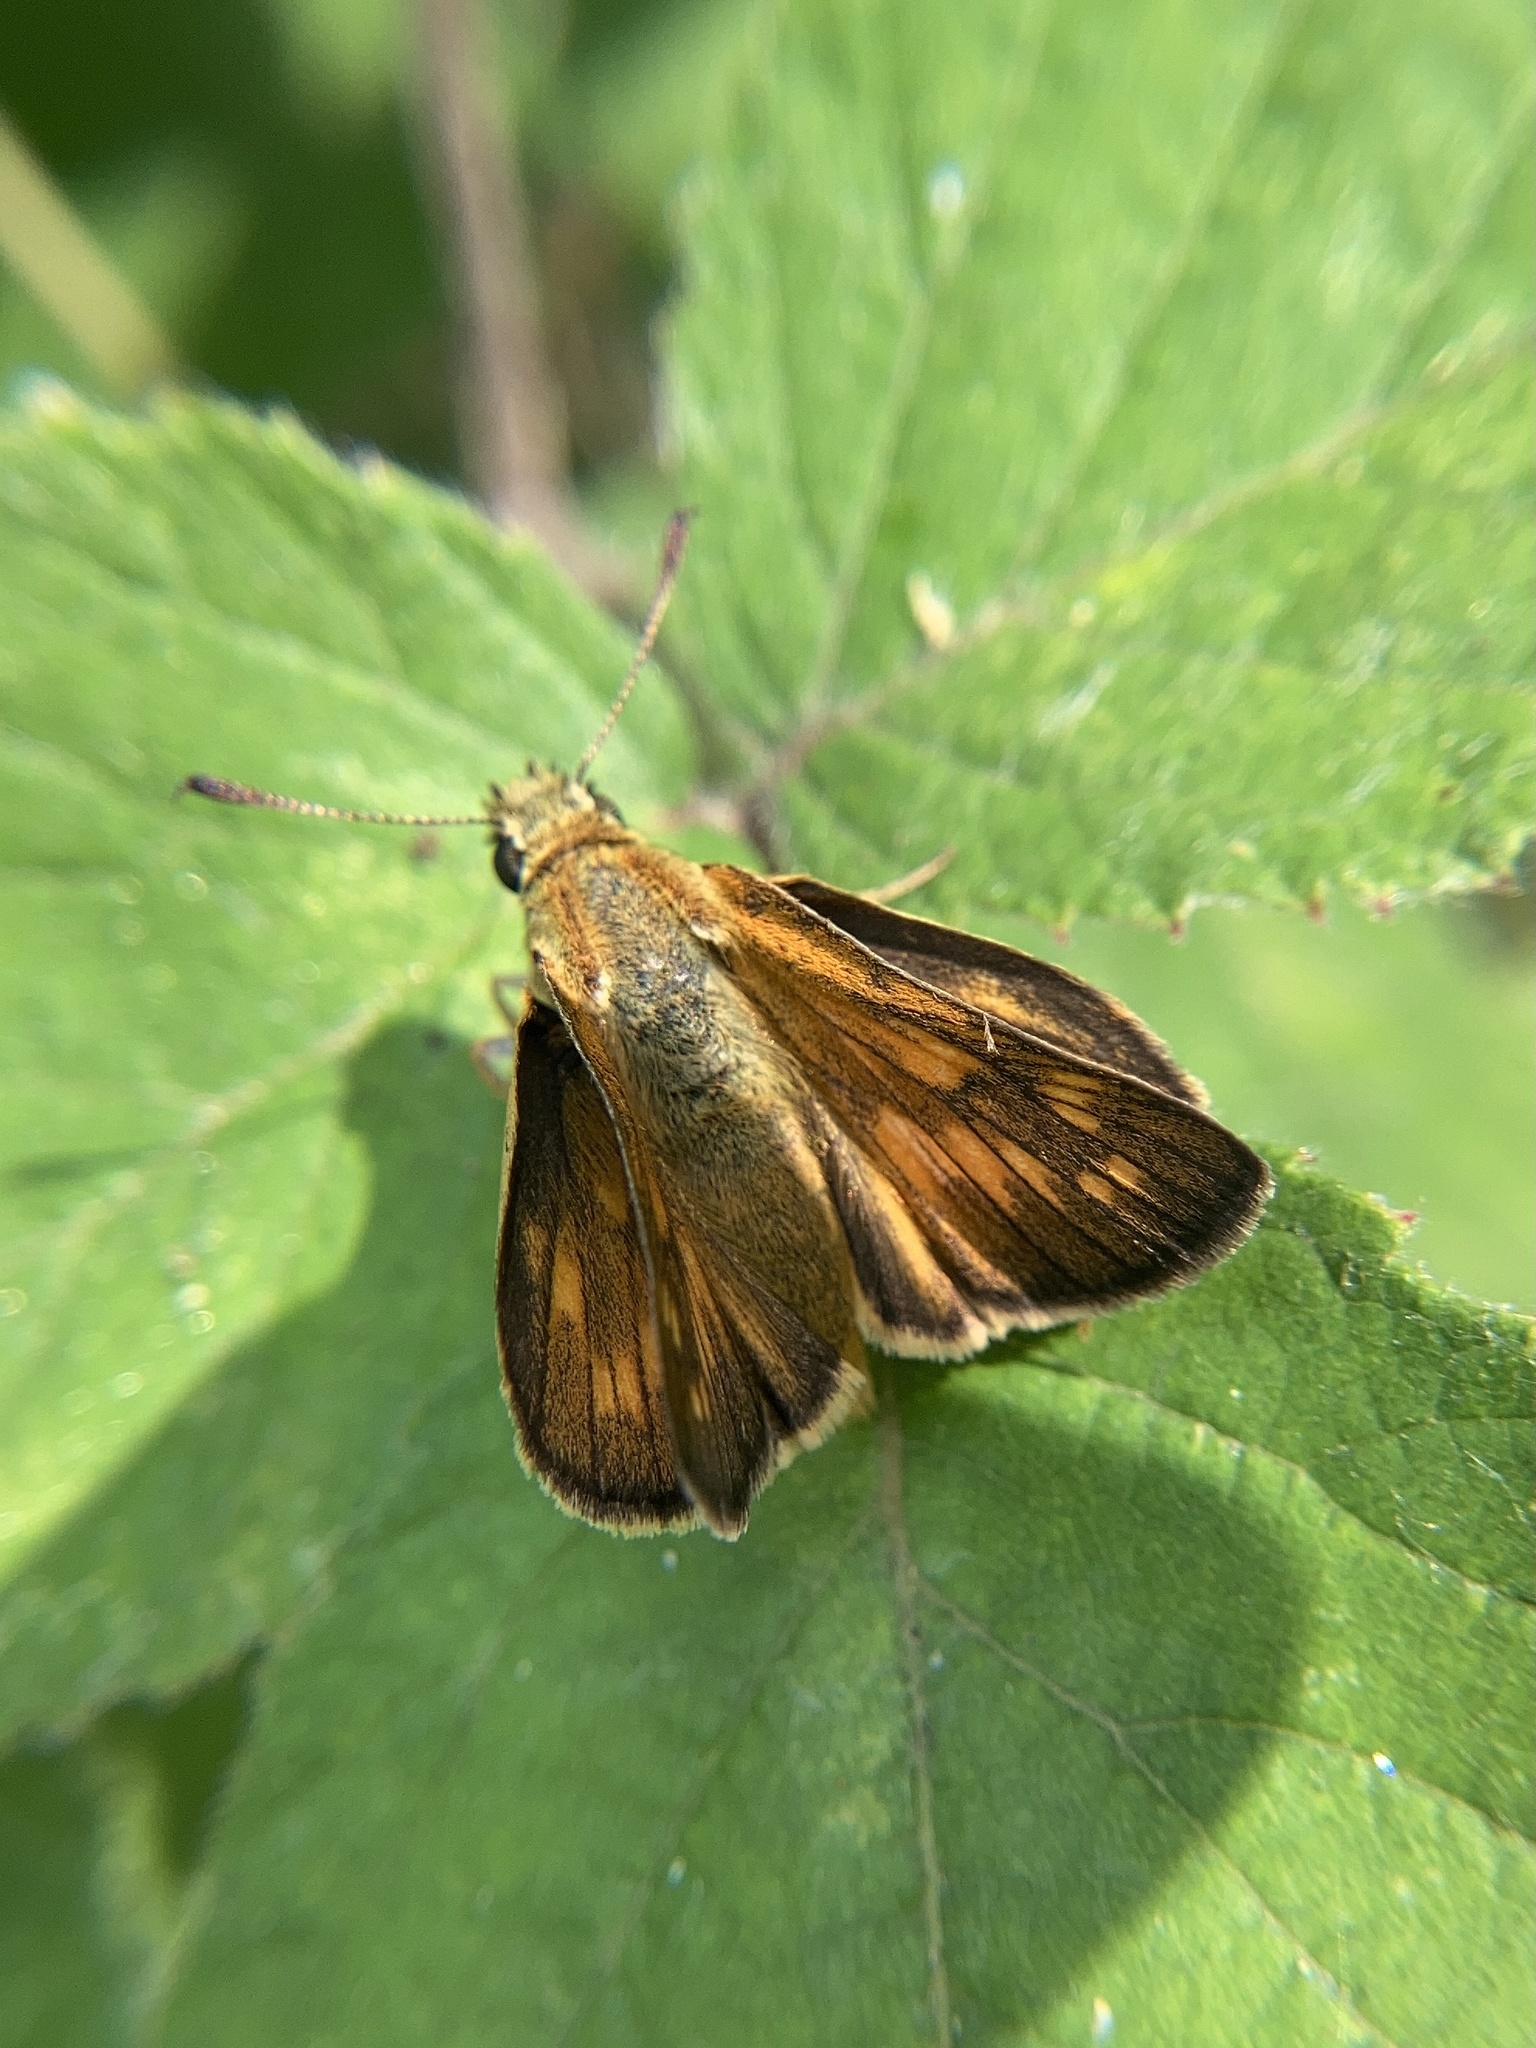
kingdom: Animalia
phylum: Arthropoda
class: Insecta
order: Lepidoptera
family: Hesperiidae
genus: Ochlodes
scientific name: Ochlodes venata
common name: Large skipper
